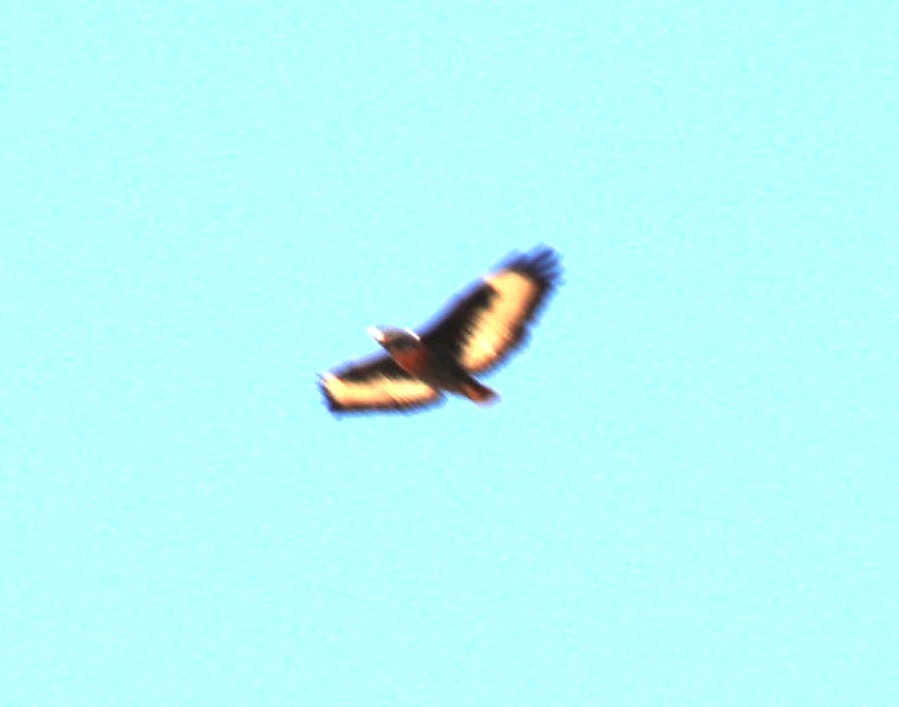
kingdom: Animalia
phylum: Chordata
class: Aves
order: Accipitriformes
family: Accipitridae
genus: Buteo
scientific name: Buteo rufofuscus
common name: Jackal buzzard
